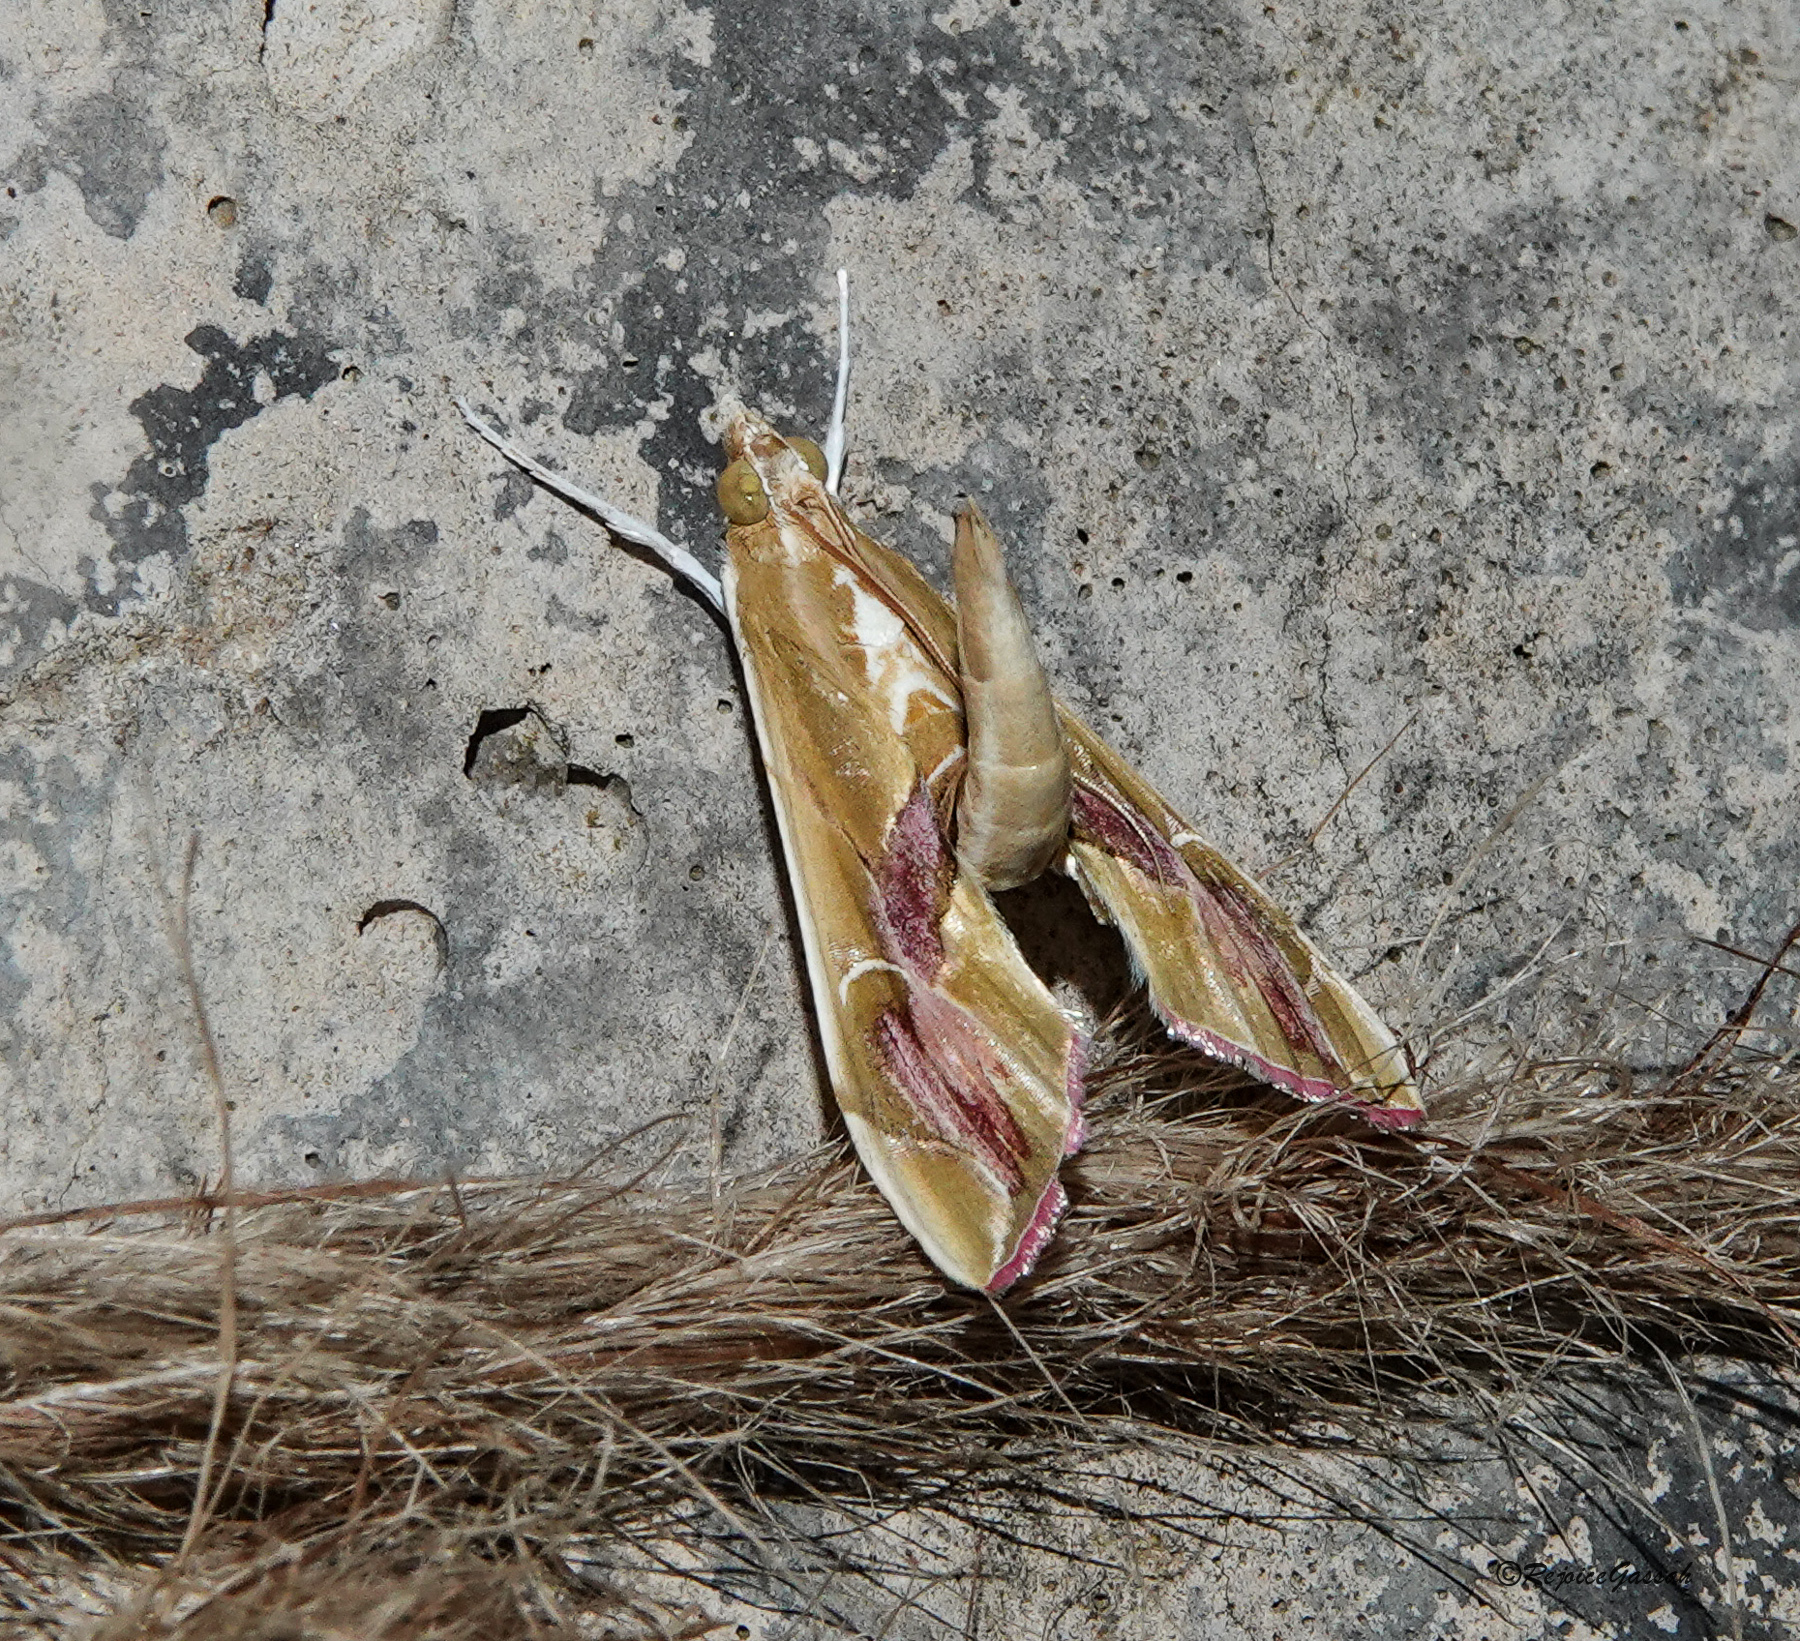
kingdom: Animalia
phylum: Arthropoda
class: Insecta
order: Lepidoptera
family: Crambidae
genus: Agathodes
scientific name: Agathodes ostentalis
